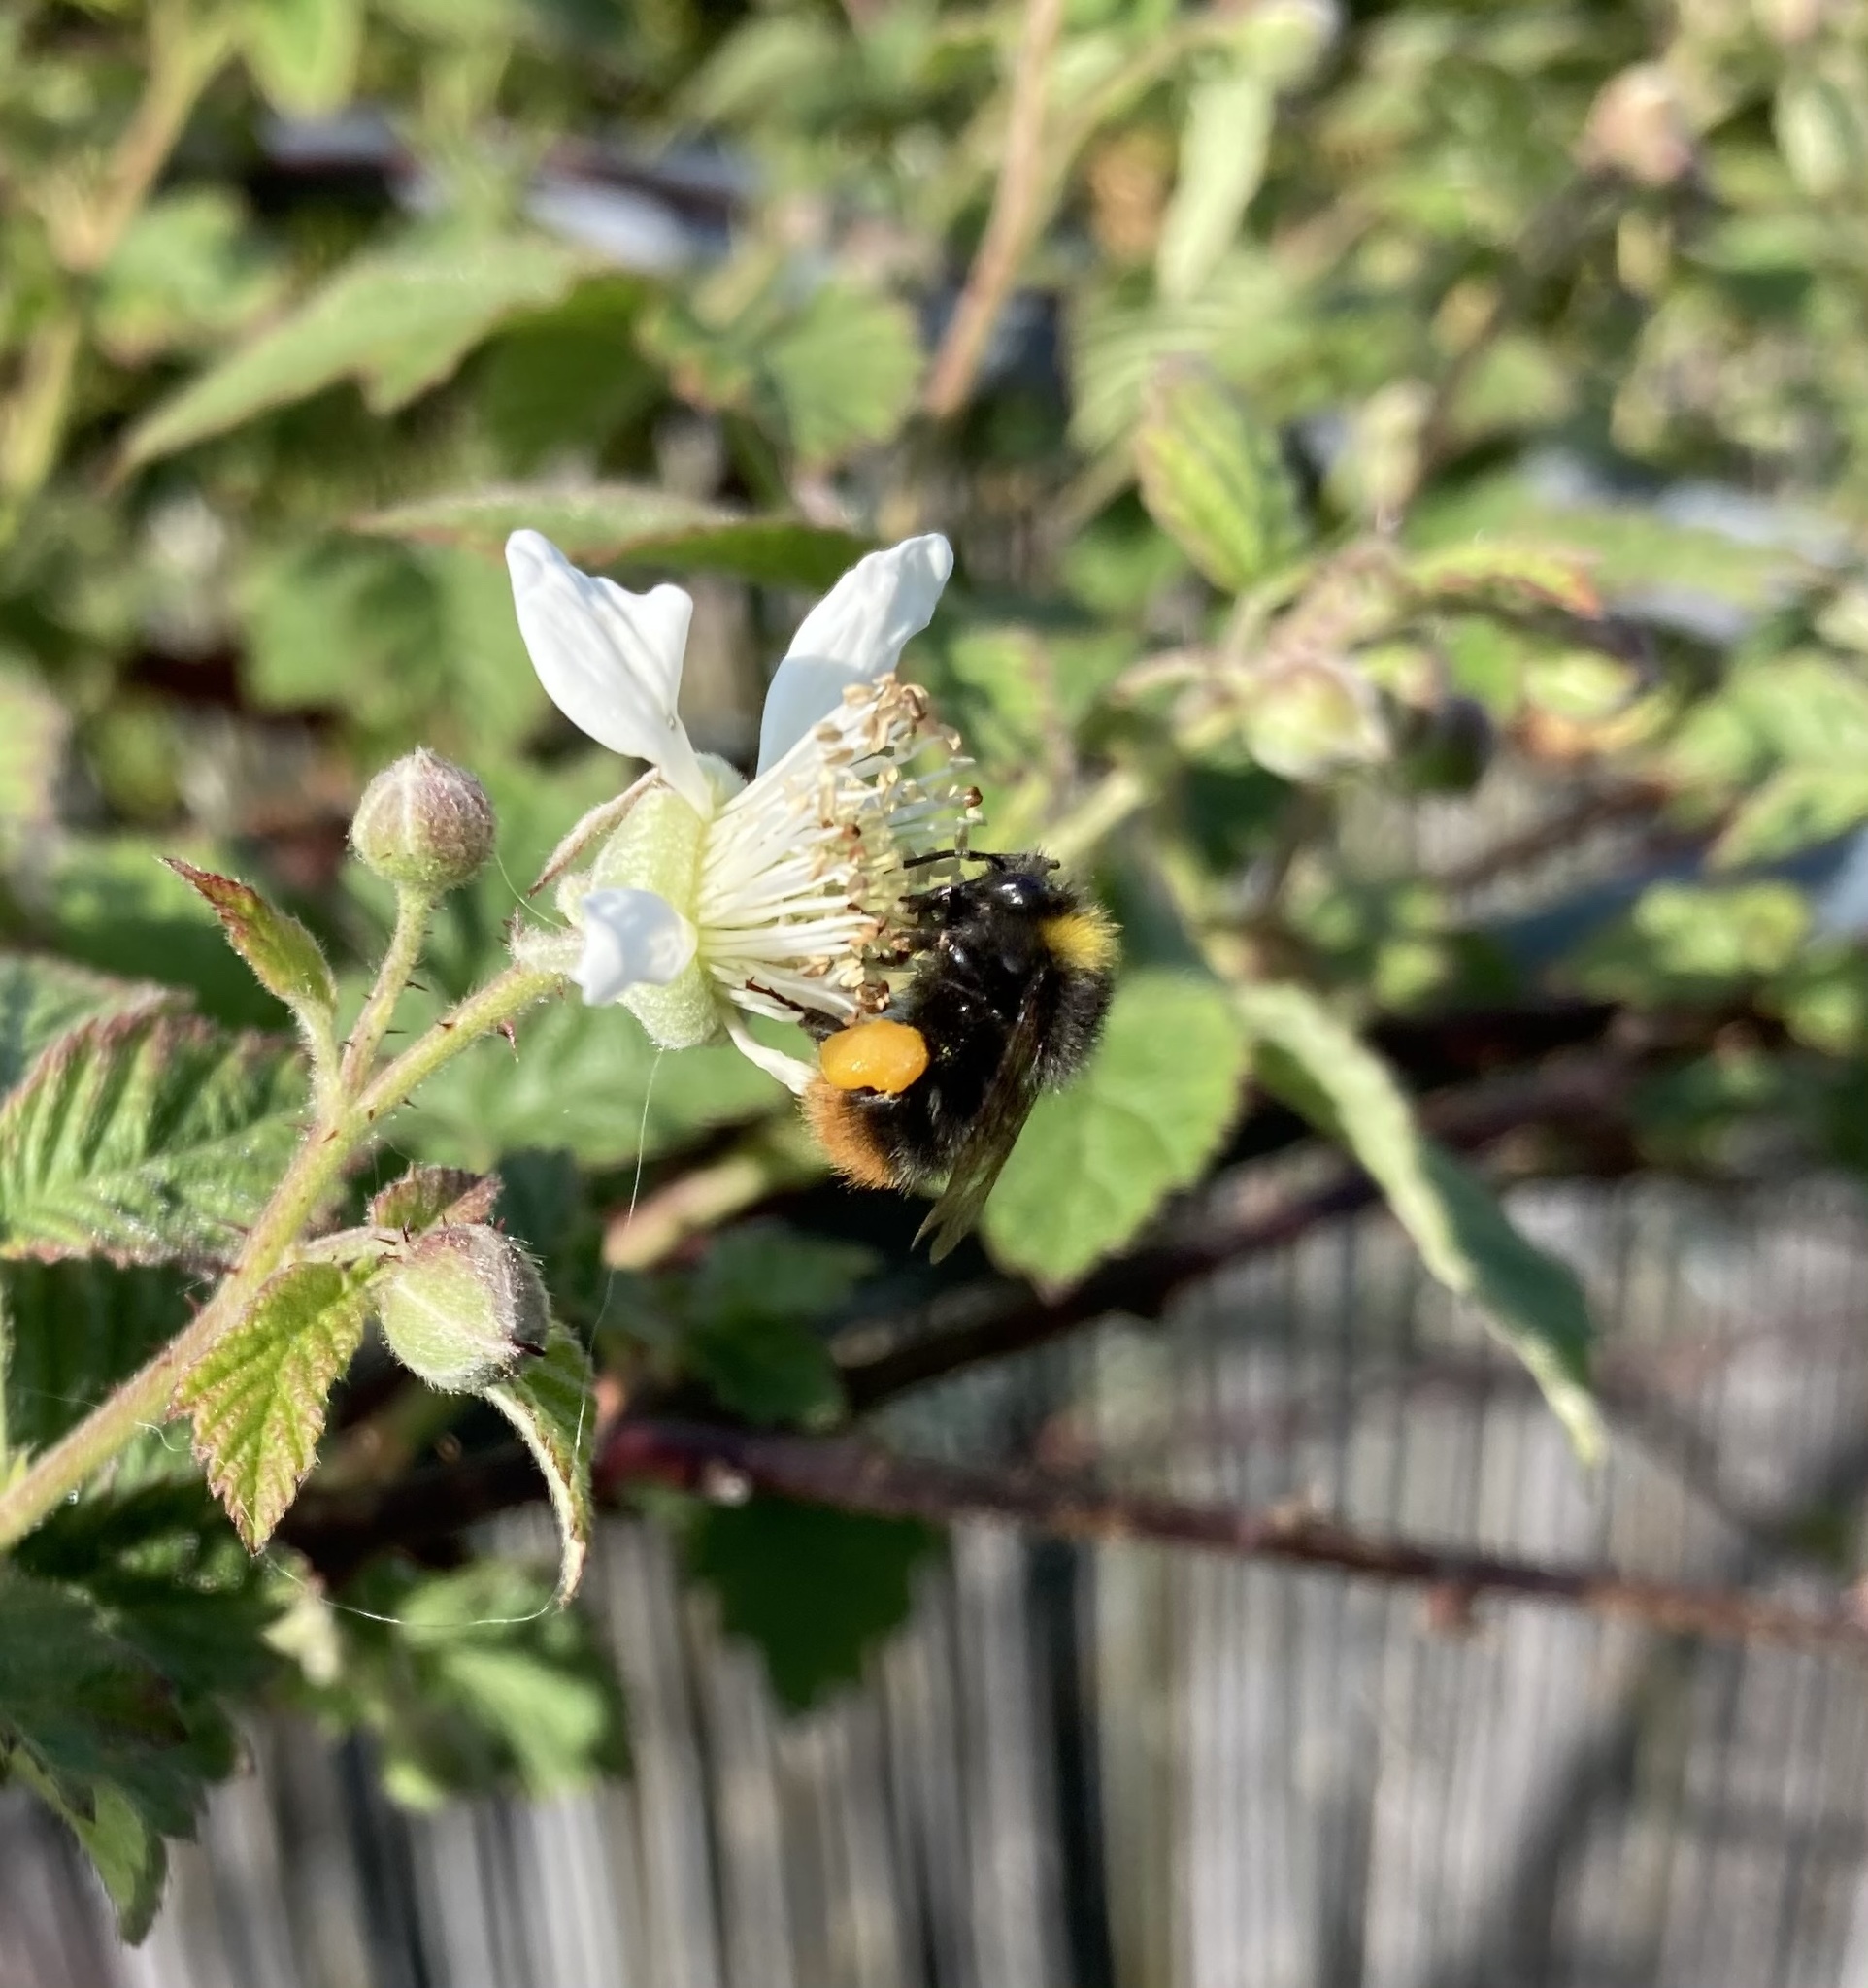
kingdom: Animalia
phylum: Arthropoda
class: Insecta
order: Hymenoptera
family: Apidae
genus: Bombus
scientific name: Bombus pratorum
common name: Early humble-bee
